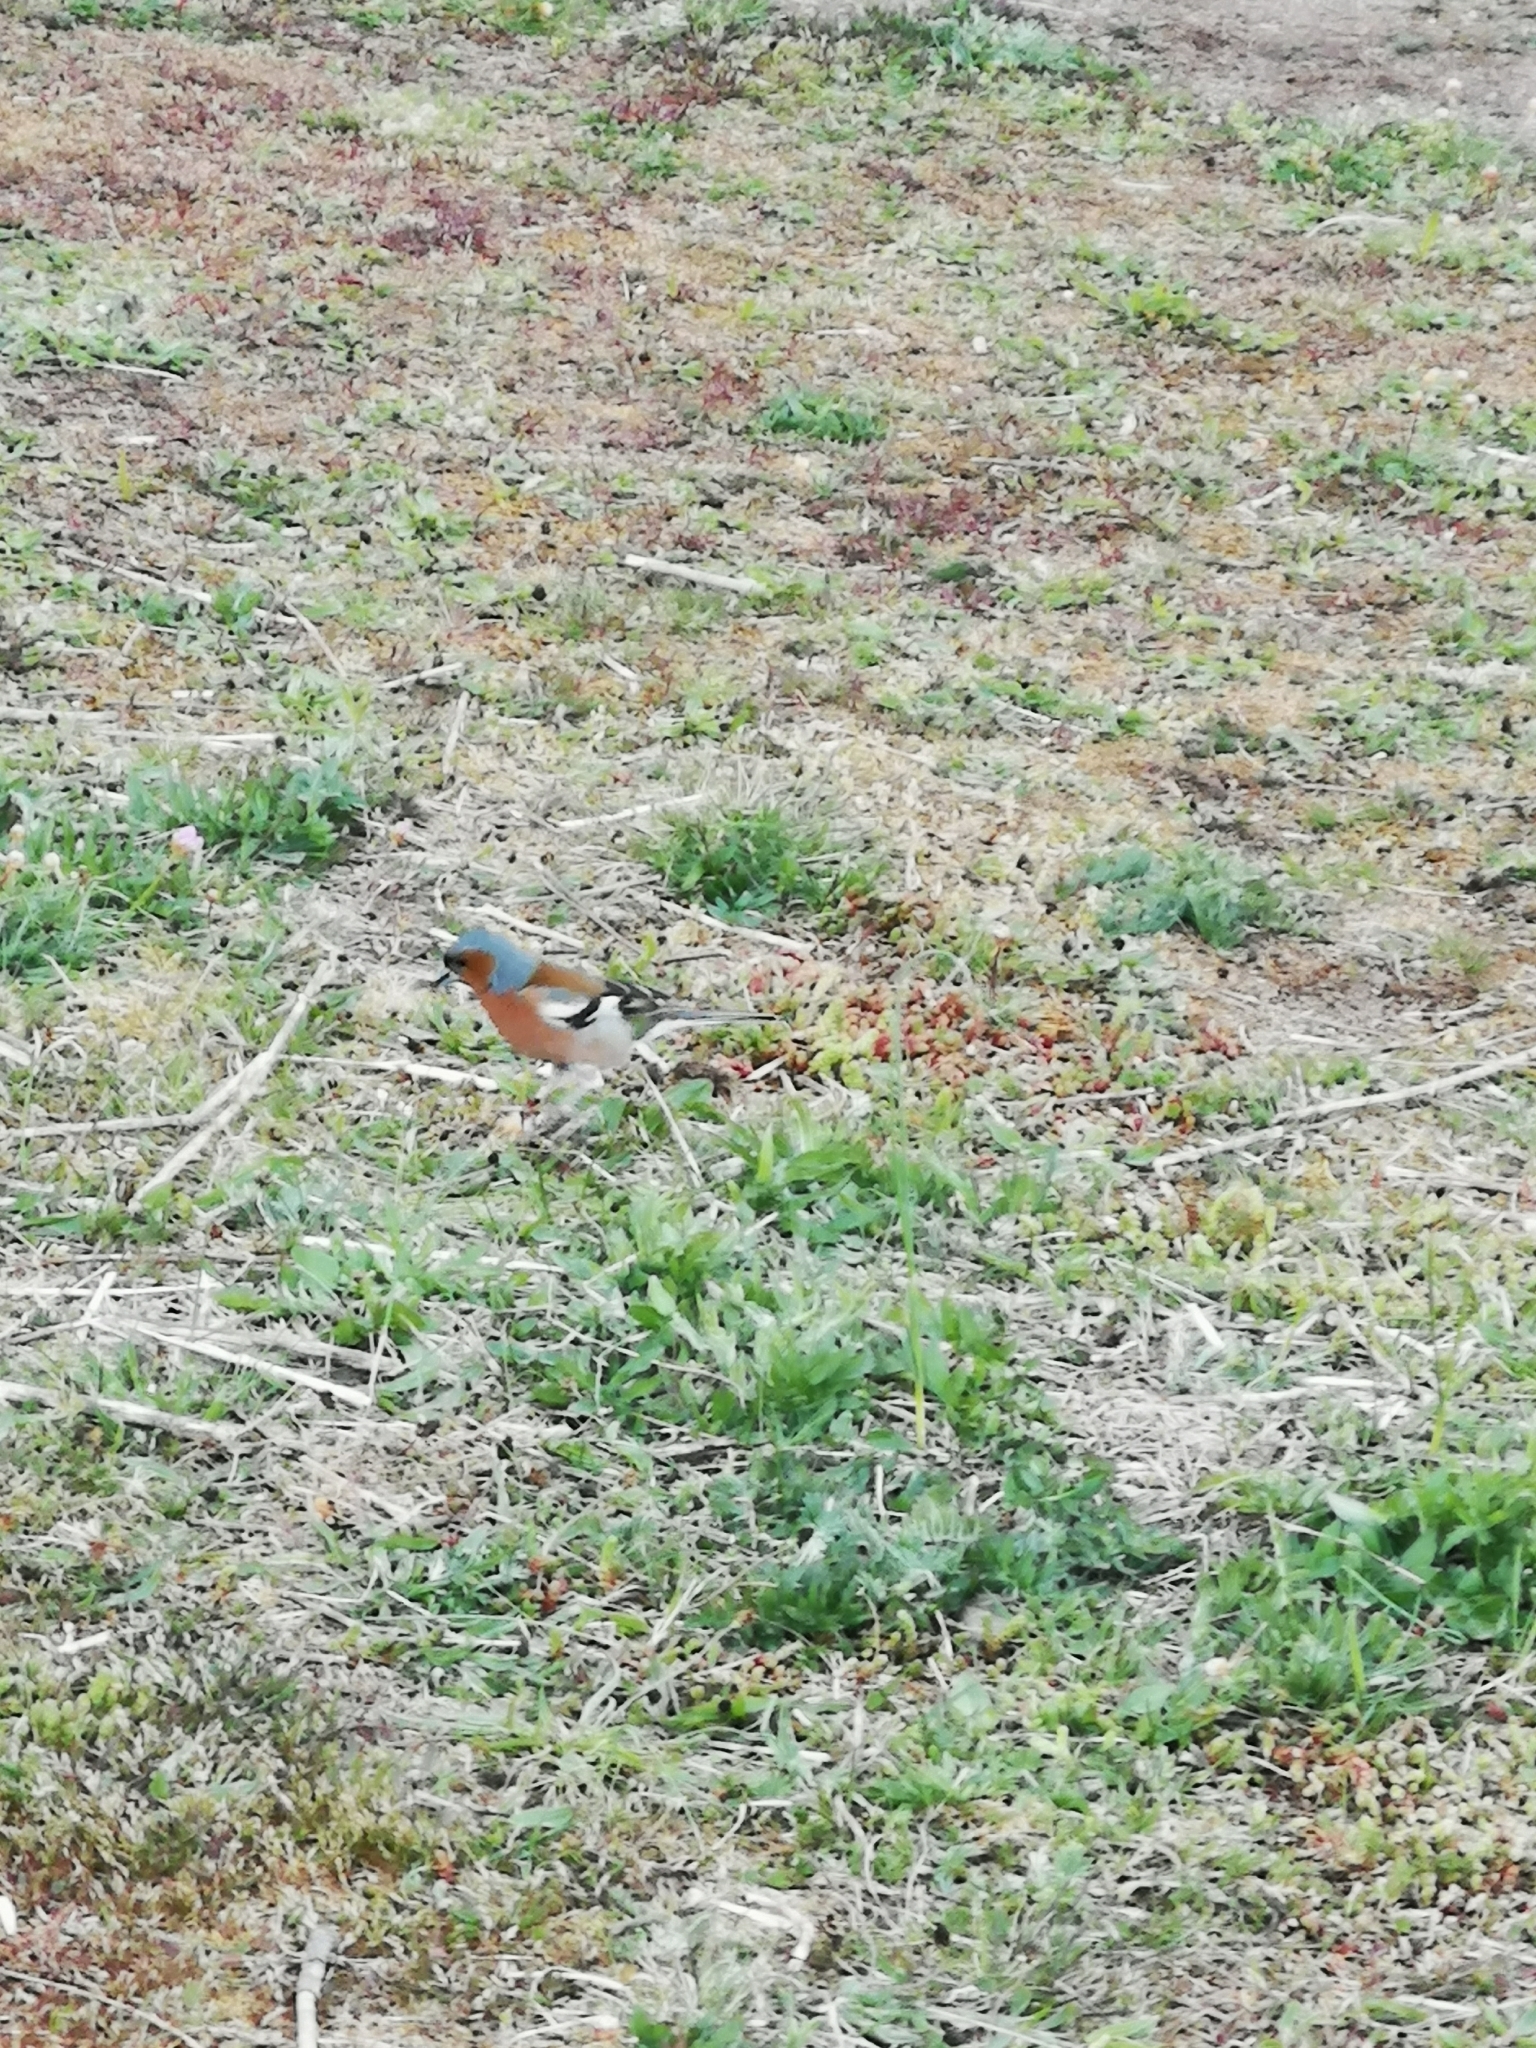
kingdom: Animalia
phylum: Chordata
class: Aves
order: Passeriformes
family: Fringillidae
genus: Fringilla
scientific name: Fringilla coelebs
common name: Common chaffinch
